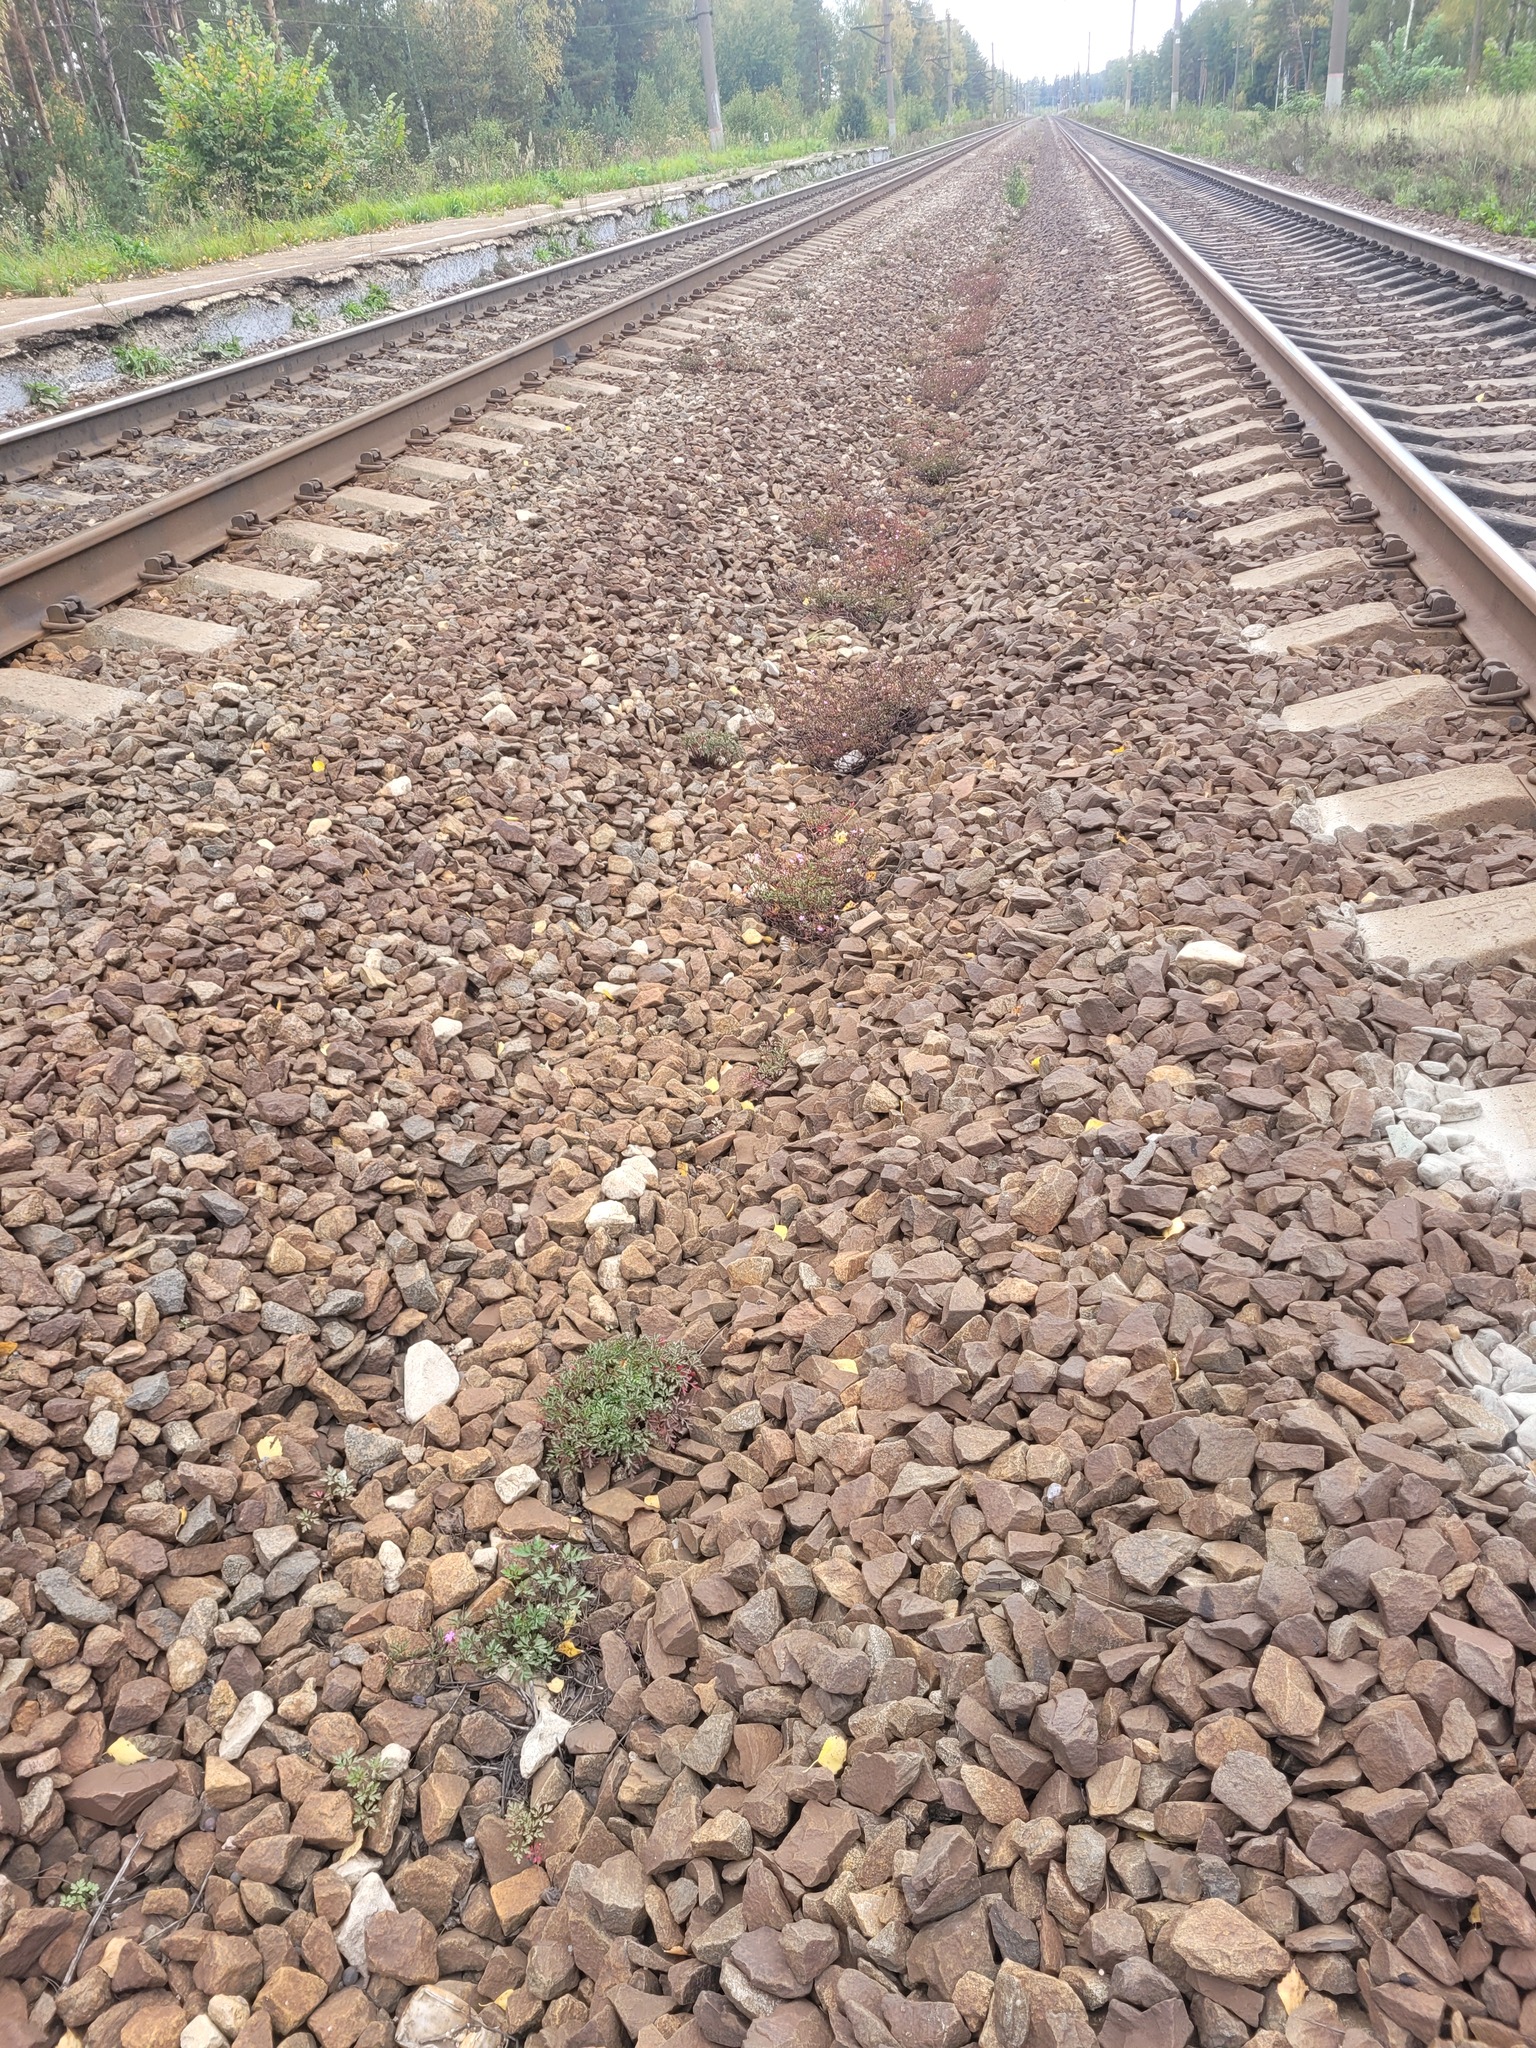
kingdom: Plantae
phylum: Tracheophyta
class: Magnoliopsida
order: Geraniales
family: Geraniaceae
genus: Geranium
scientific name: Geranium robertianum
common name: Herb-robert
